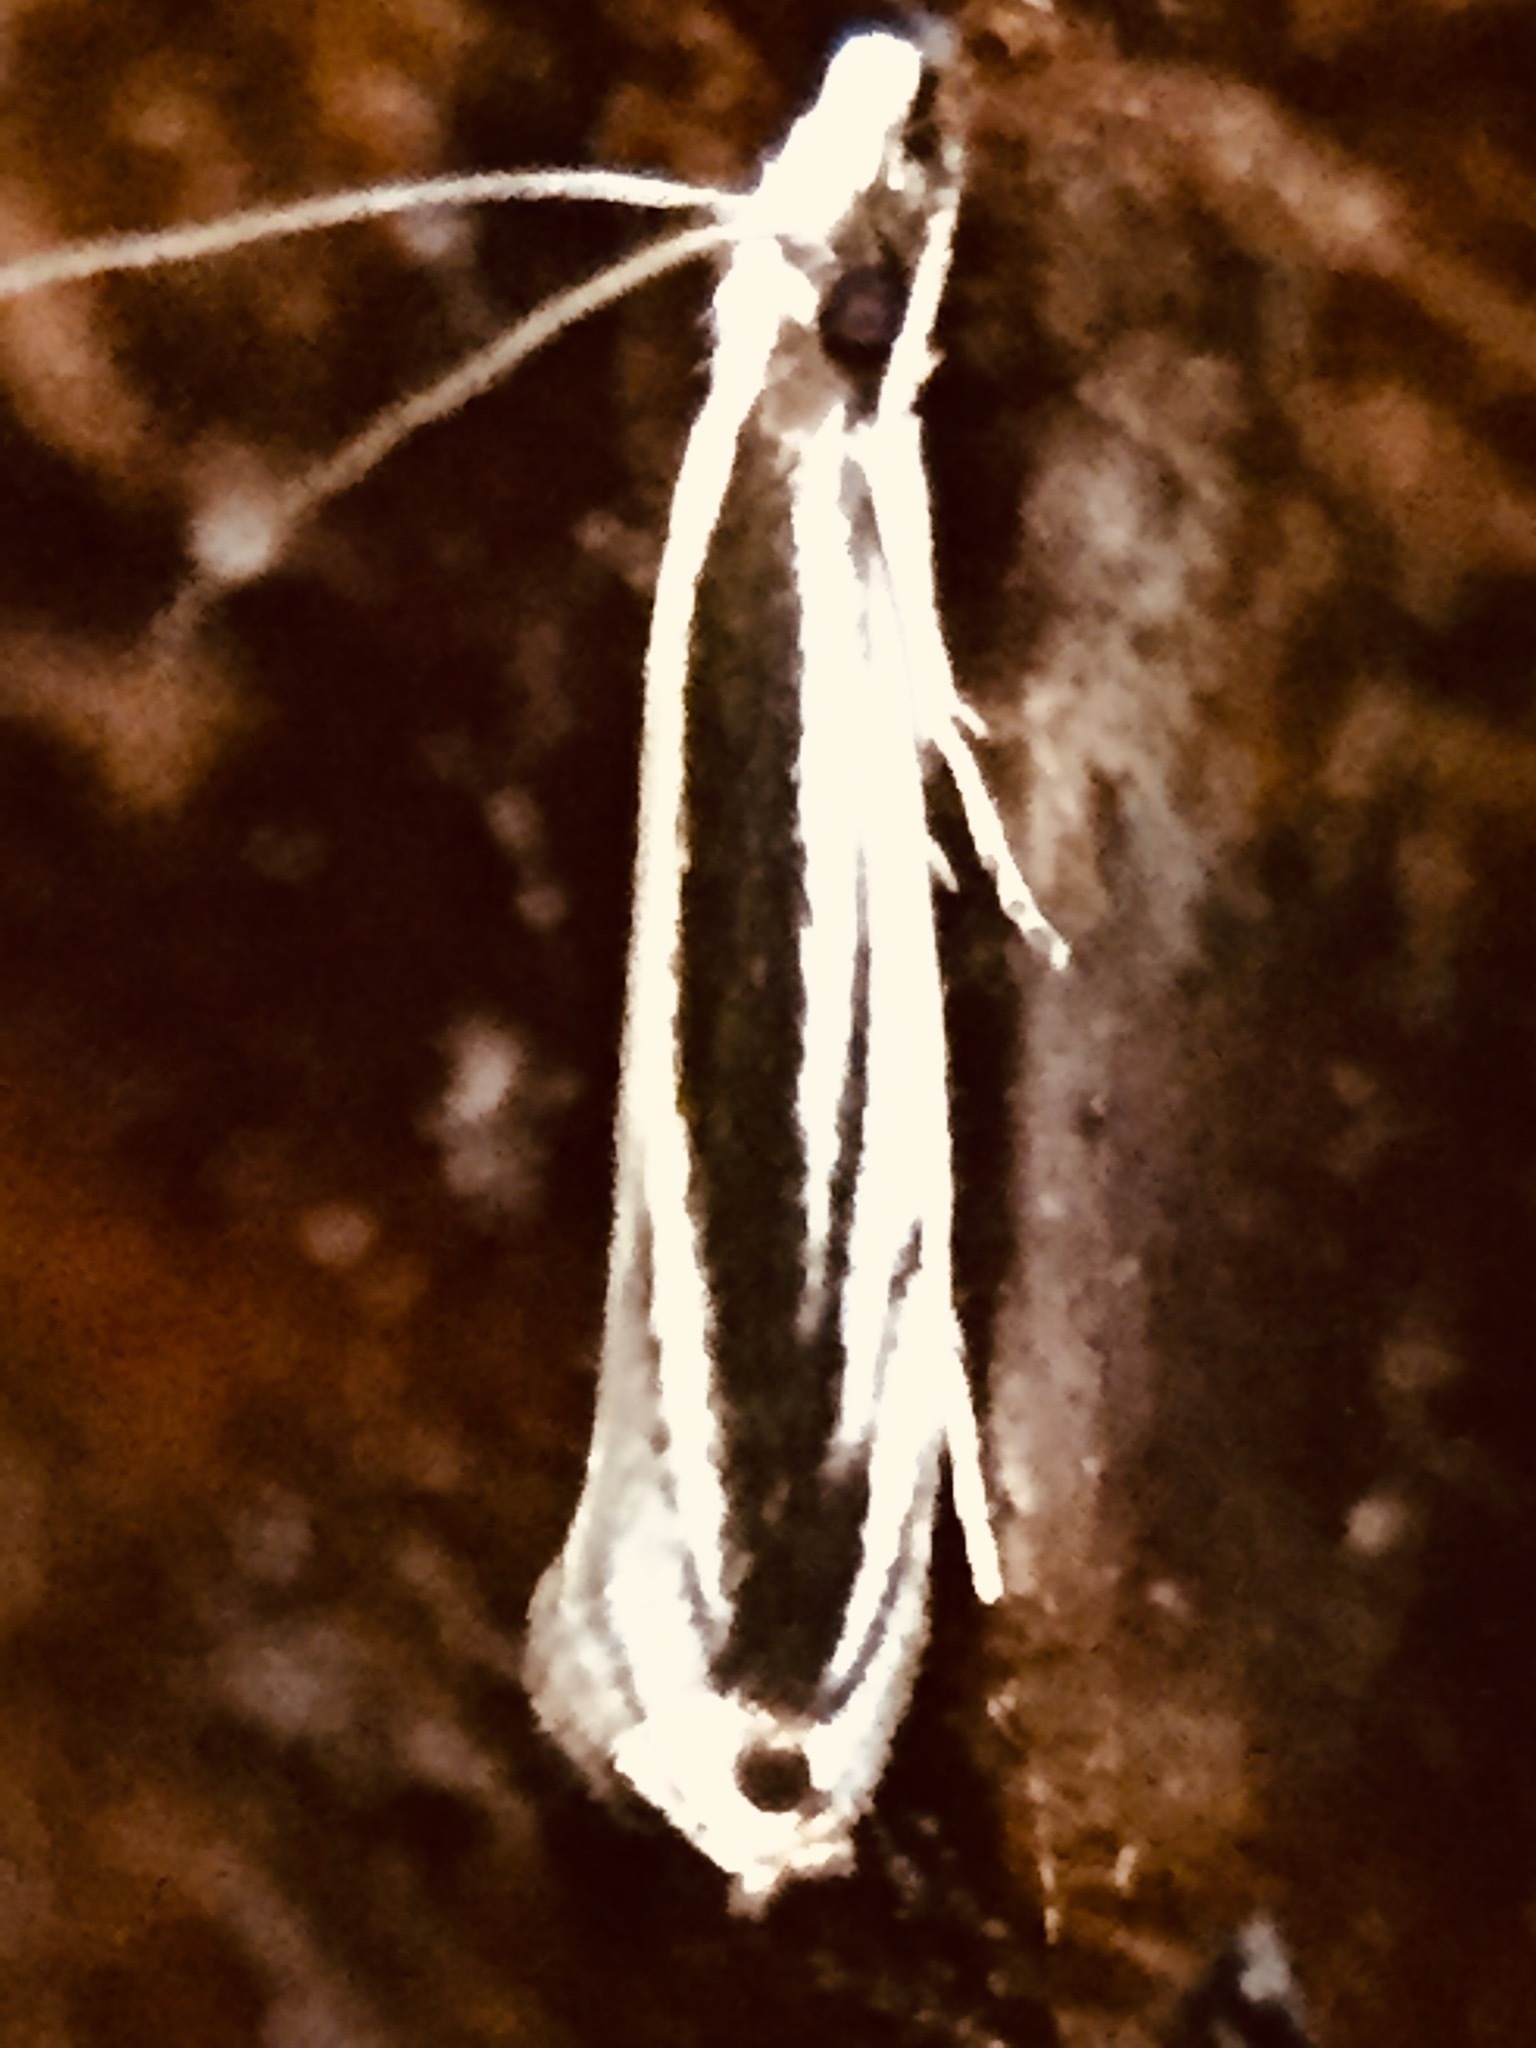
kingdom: Animalia
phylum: Arthropoda
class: Insecta
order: Lepidoptera
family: Tineidae
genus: Erechthias
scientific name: Erechthias stilbella
